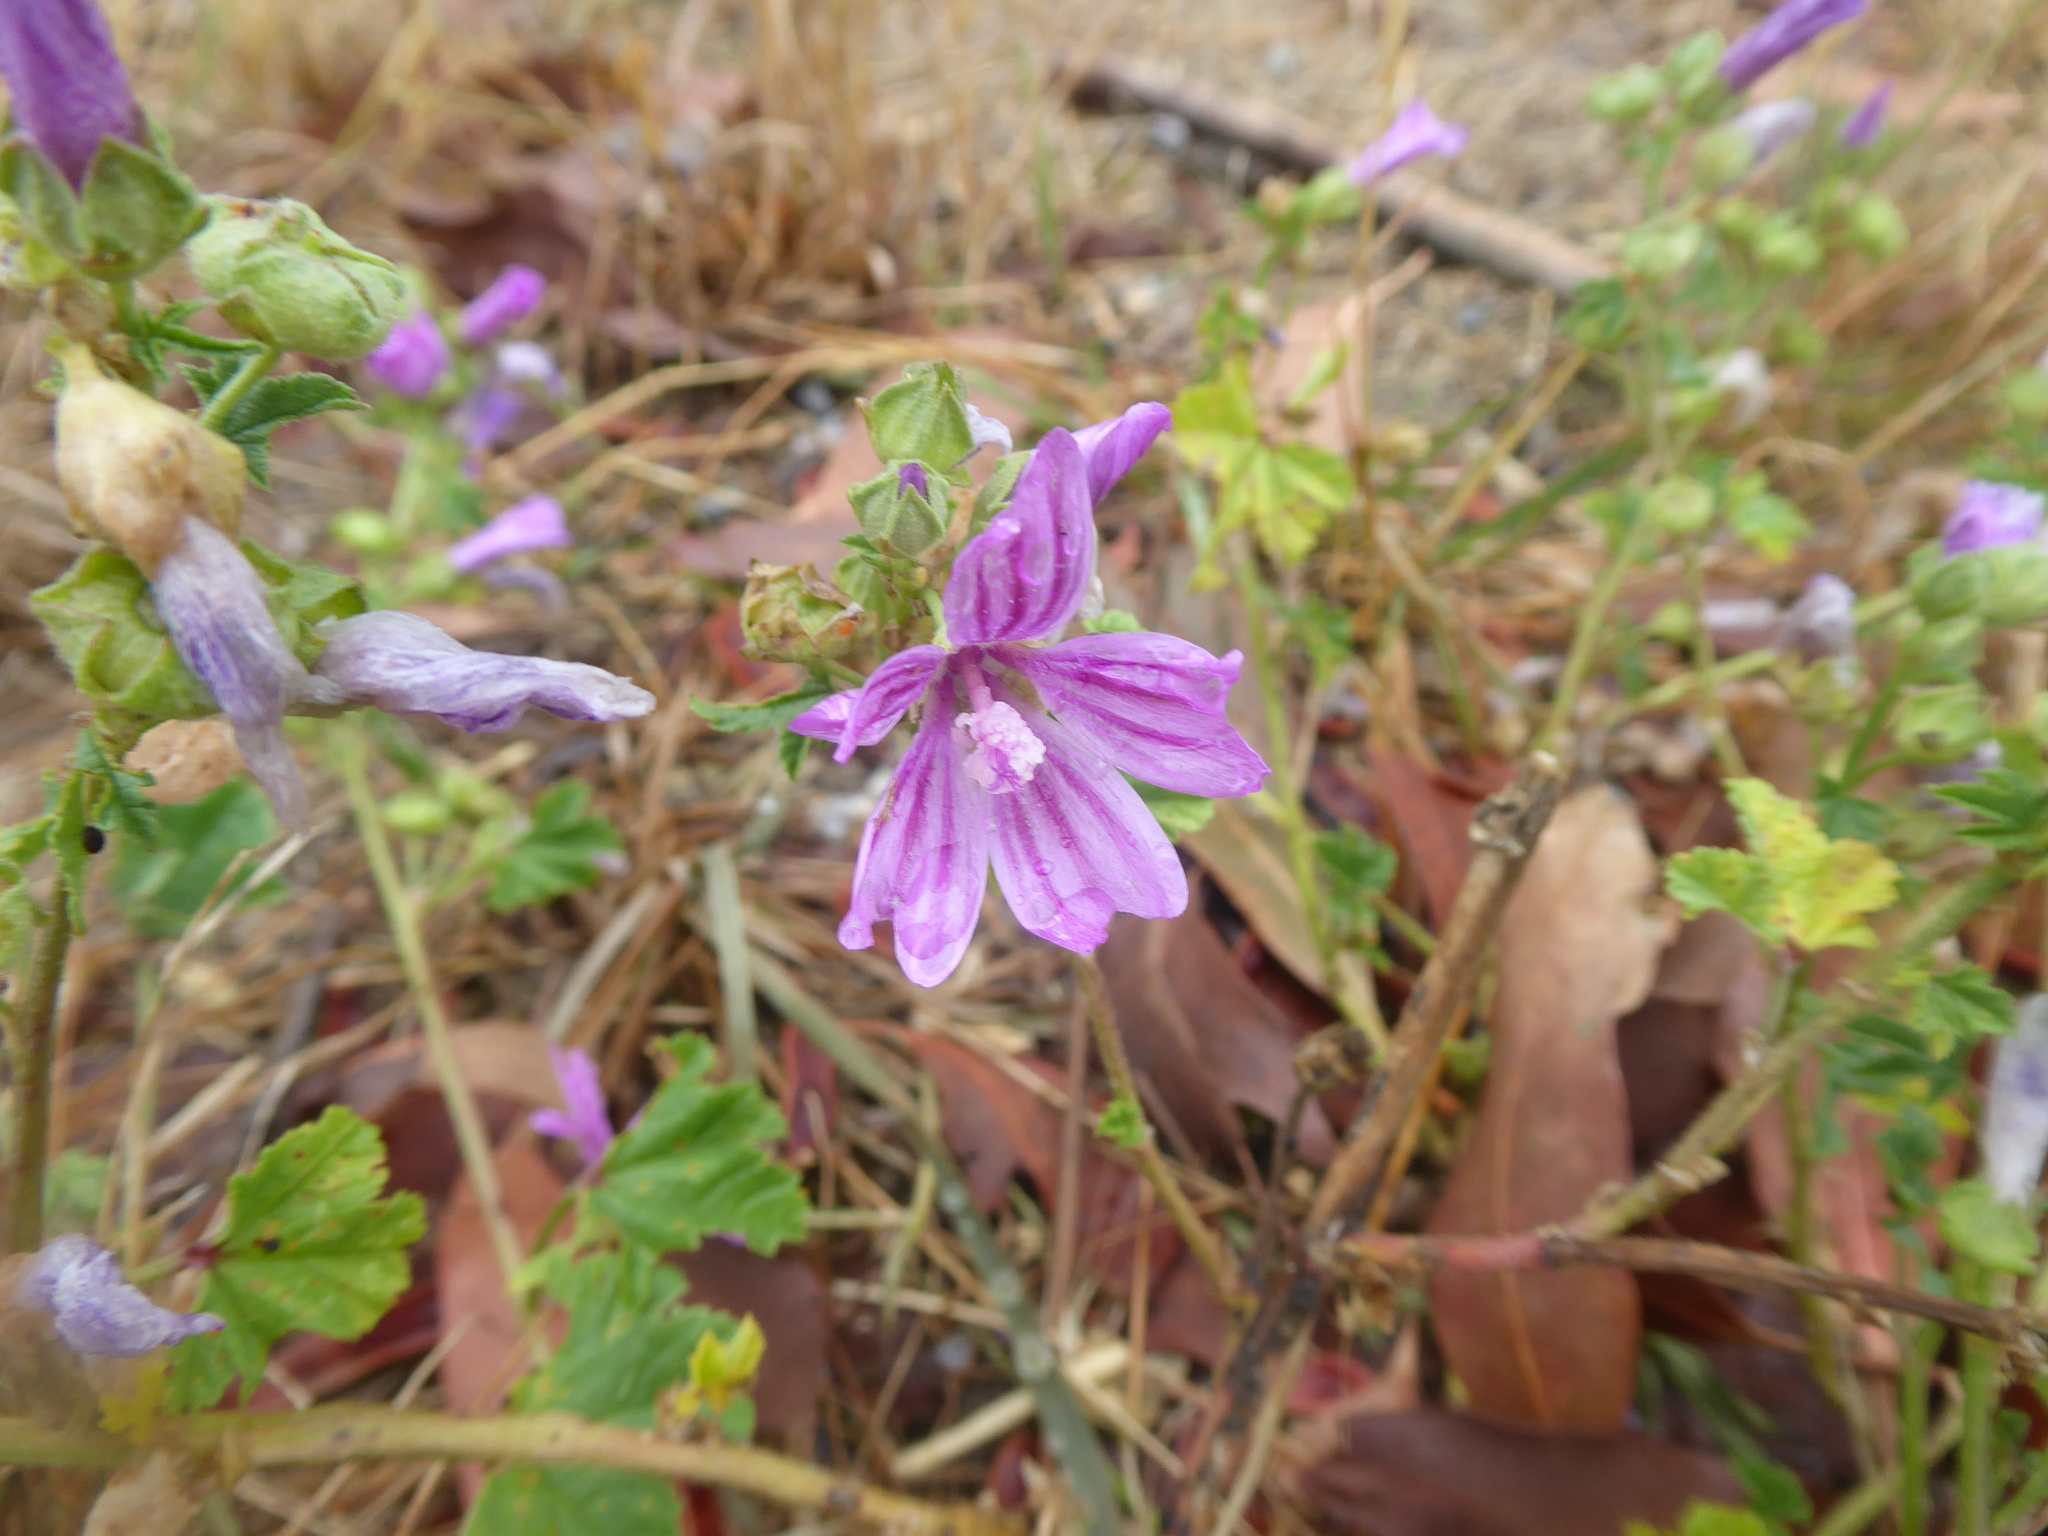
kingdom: Plantae
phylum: Tracheophyta
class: Magnoliopsida
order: Malvales
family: Malvaceae
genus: Malva
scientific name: Malva sylvestris
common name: Common mallow
